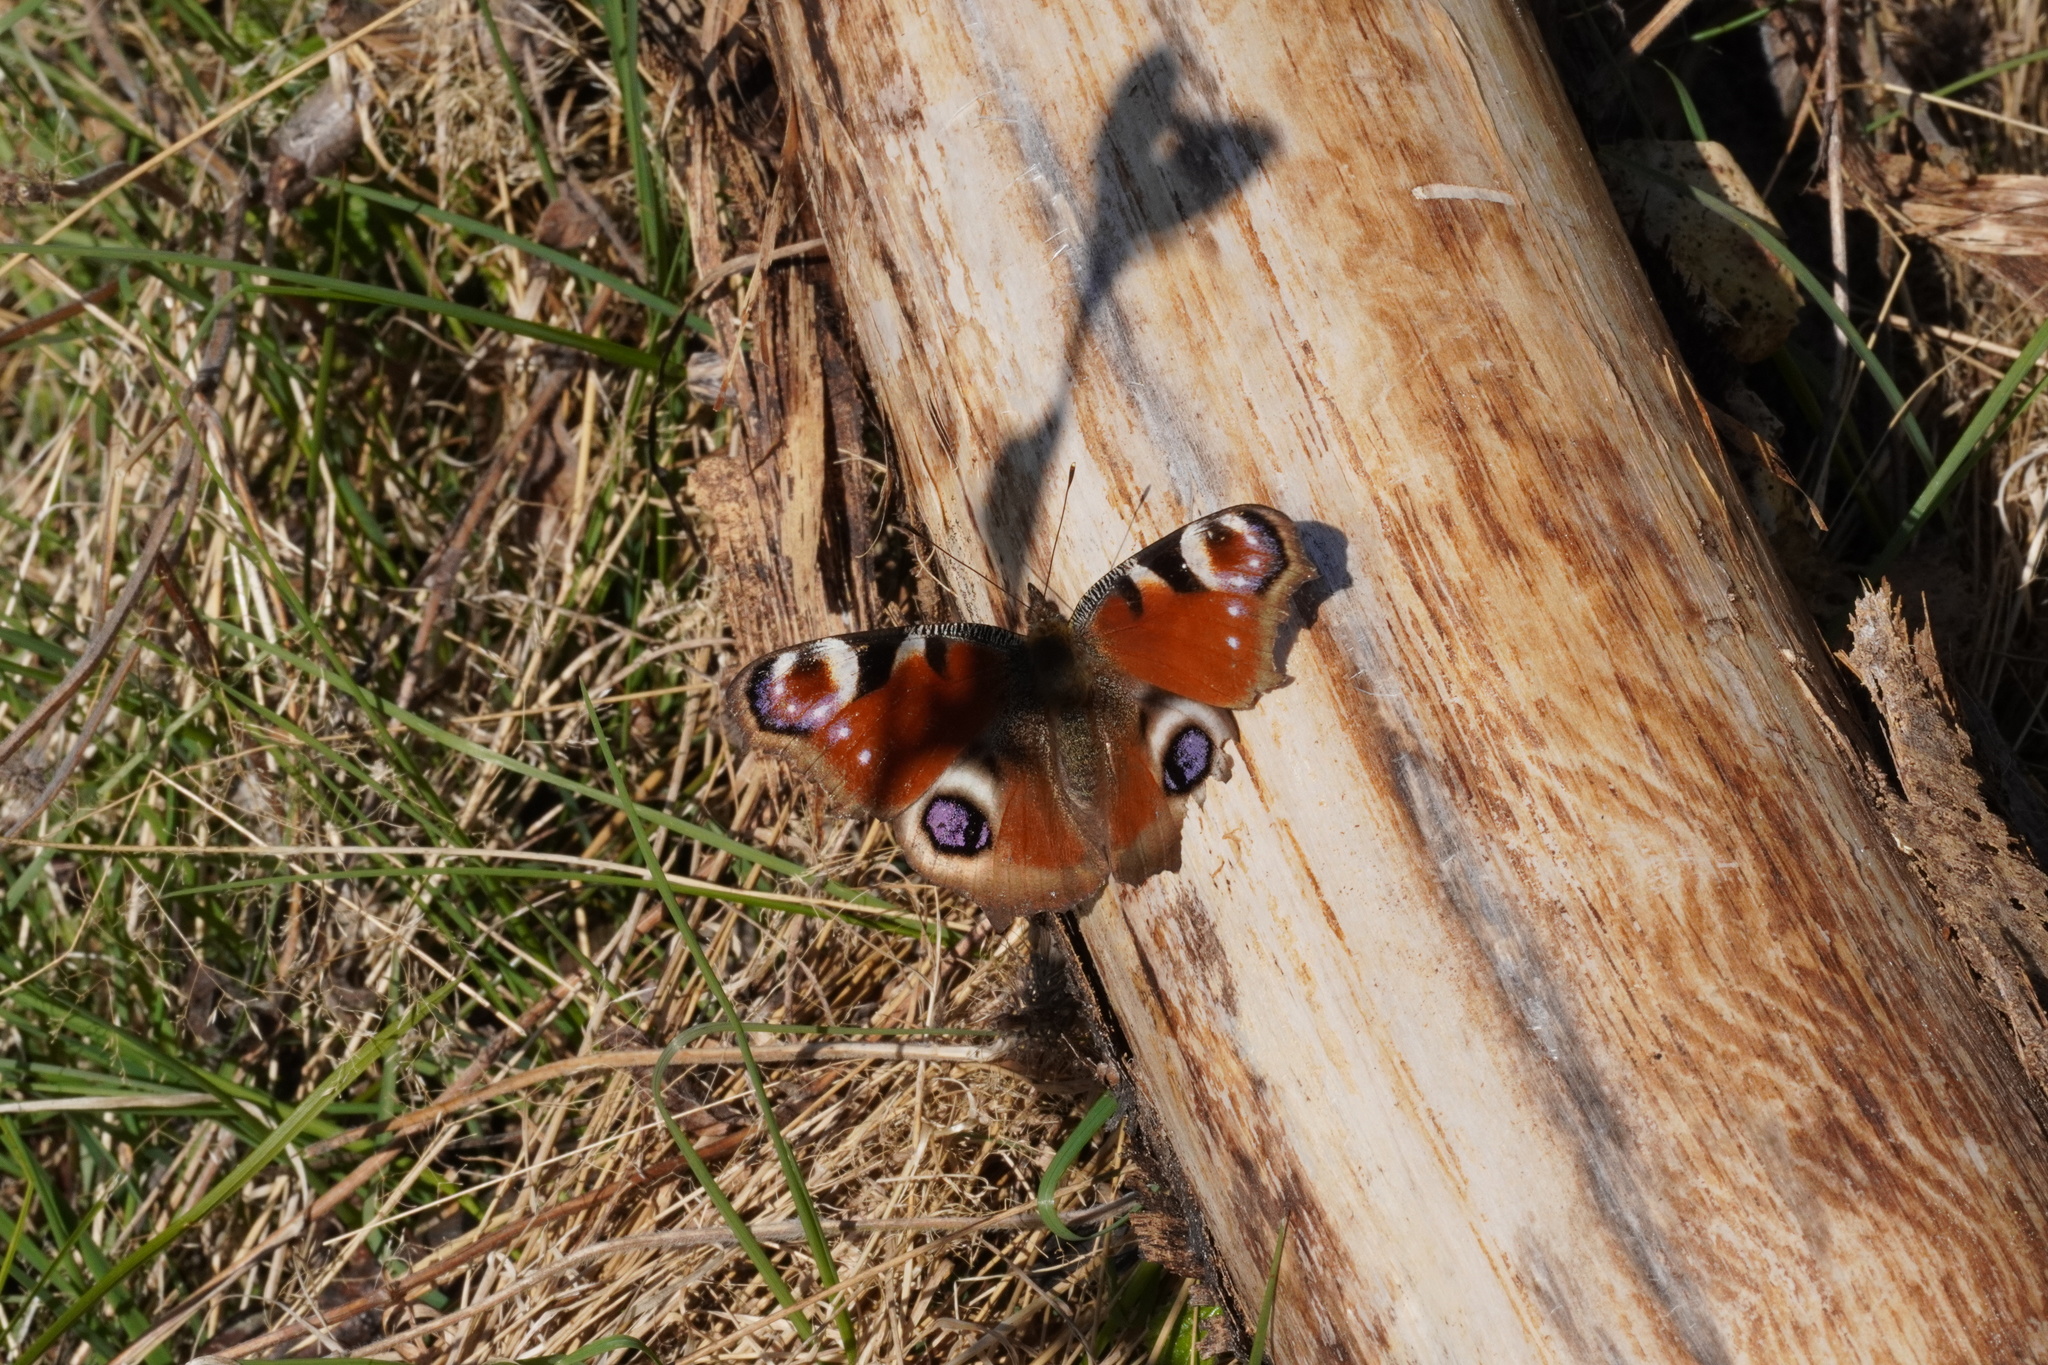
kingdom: Animalia
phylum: Arthropoda
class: Insecta
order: Lepidoptera
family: Nymphalidae
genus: Aglais
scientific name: Aglais io
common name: Peacock
